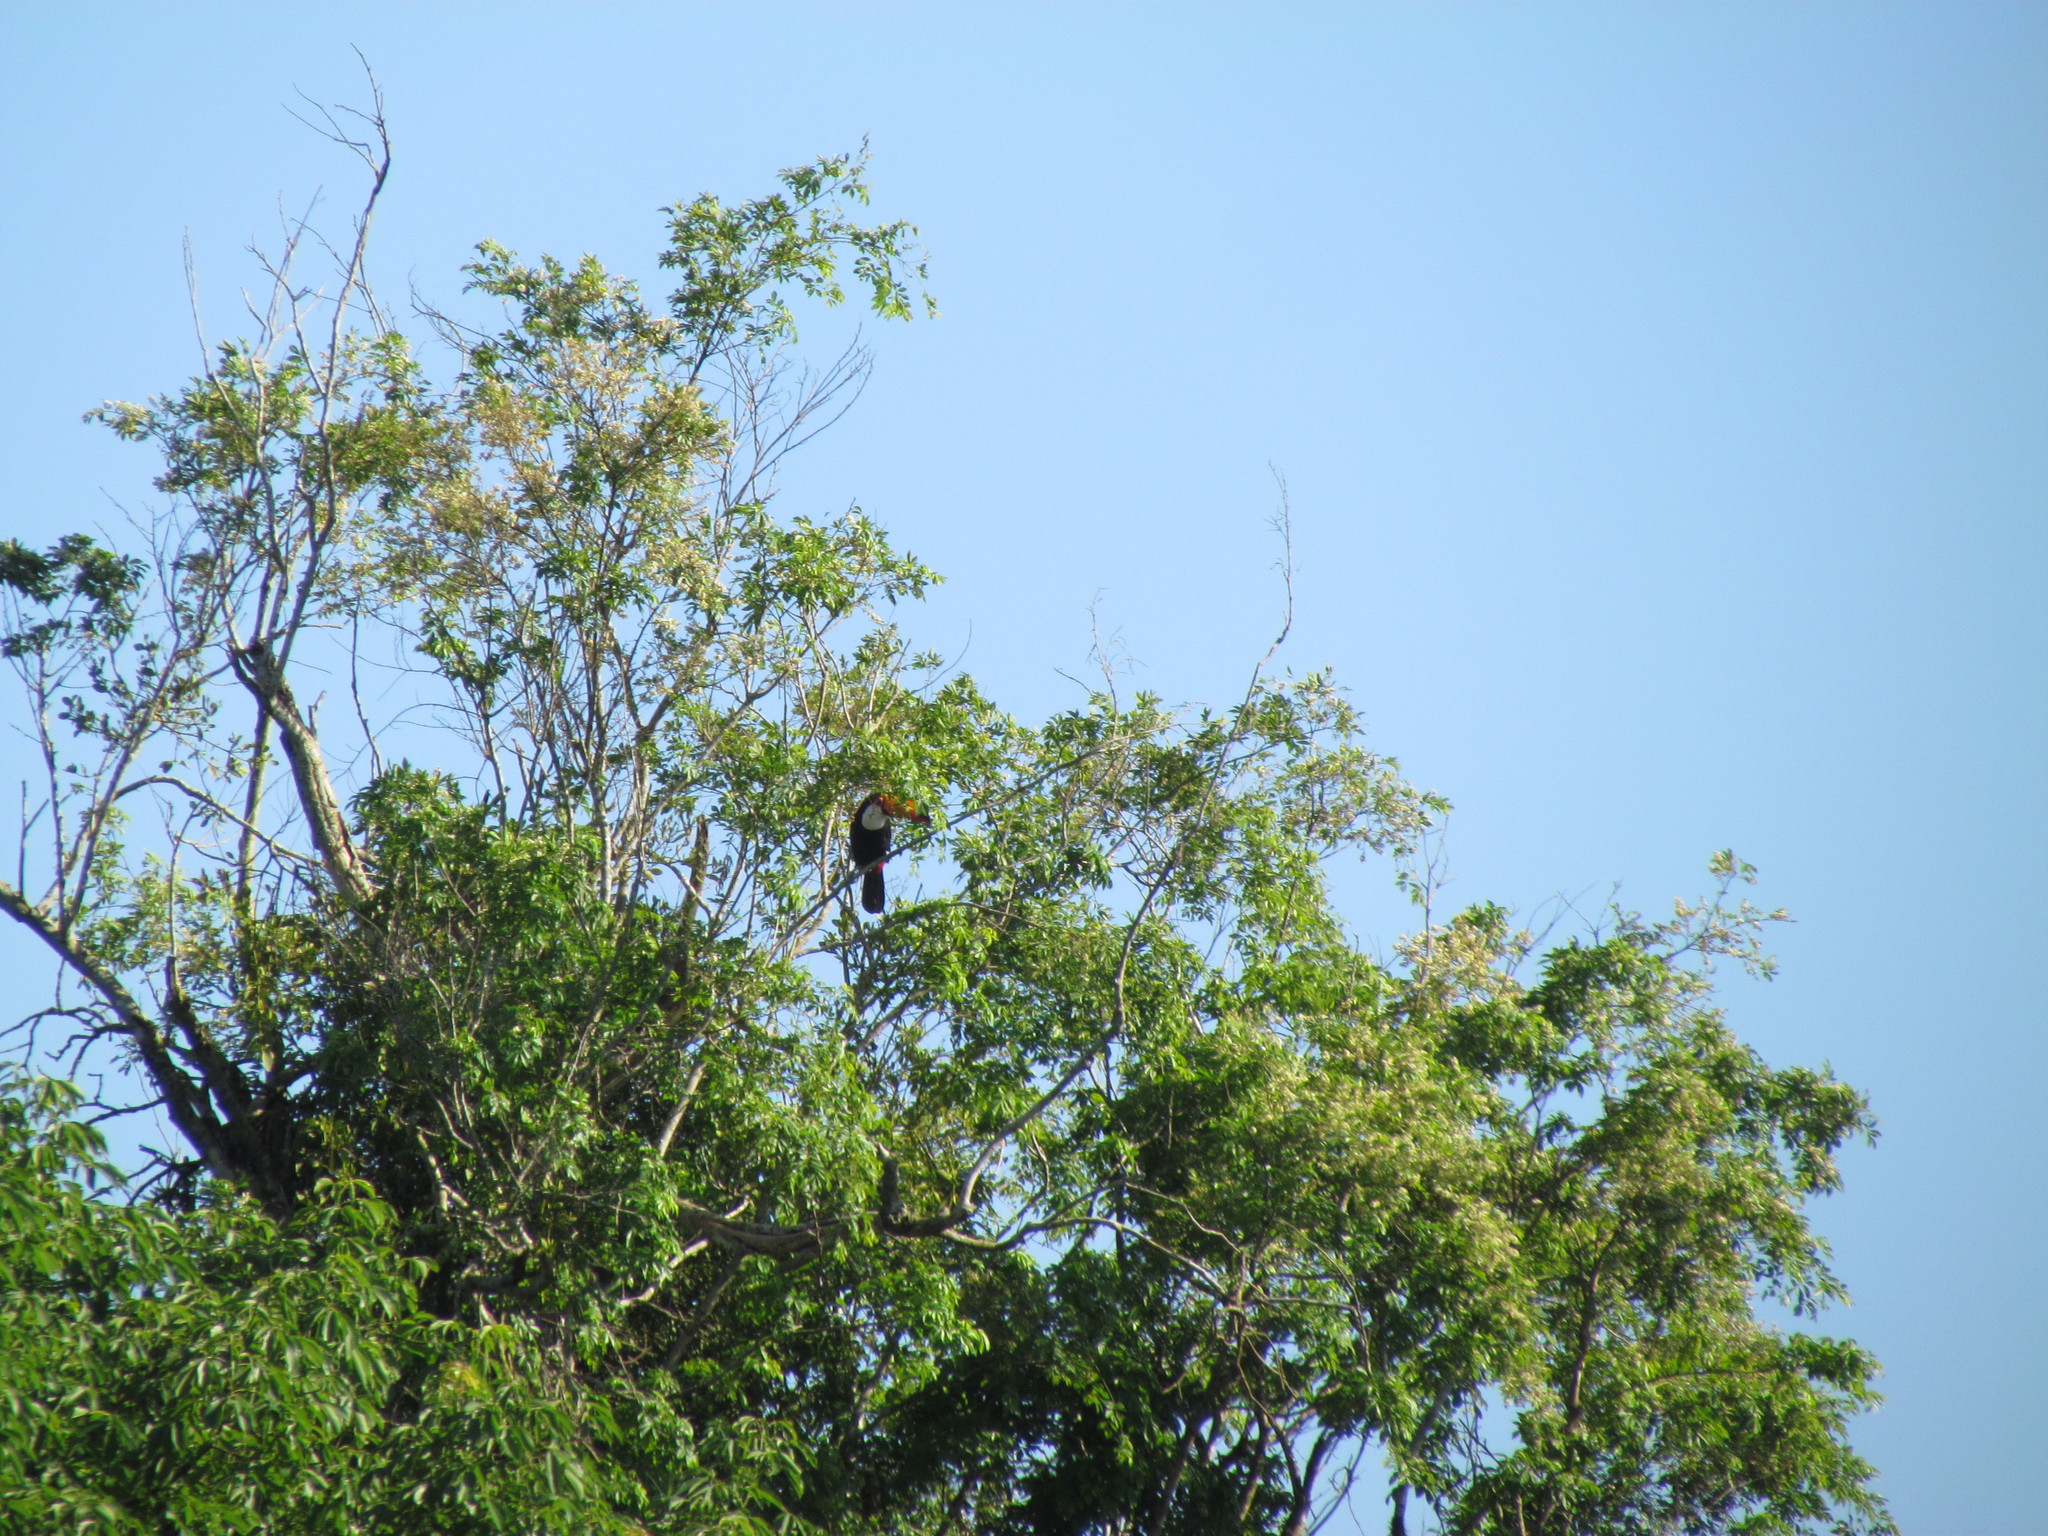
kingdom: Animalia
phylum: Chordata
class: Aves
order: Piciformes
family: Ramphastidae
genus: Ramphastos
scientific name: Ramphastos toco
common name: Toco toucan
